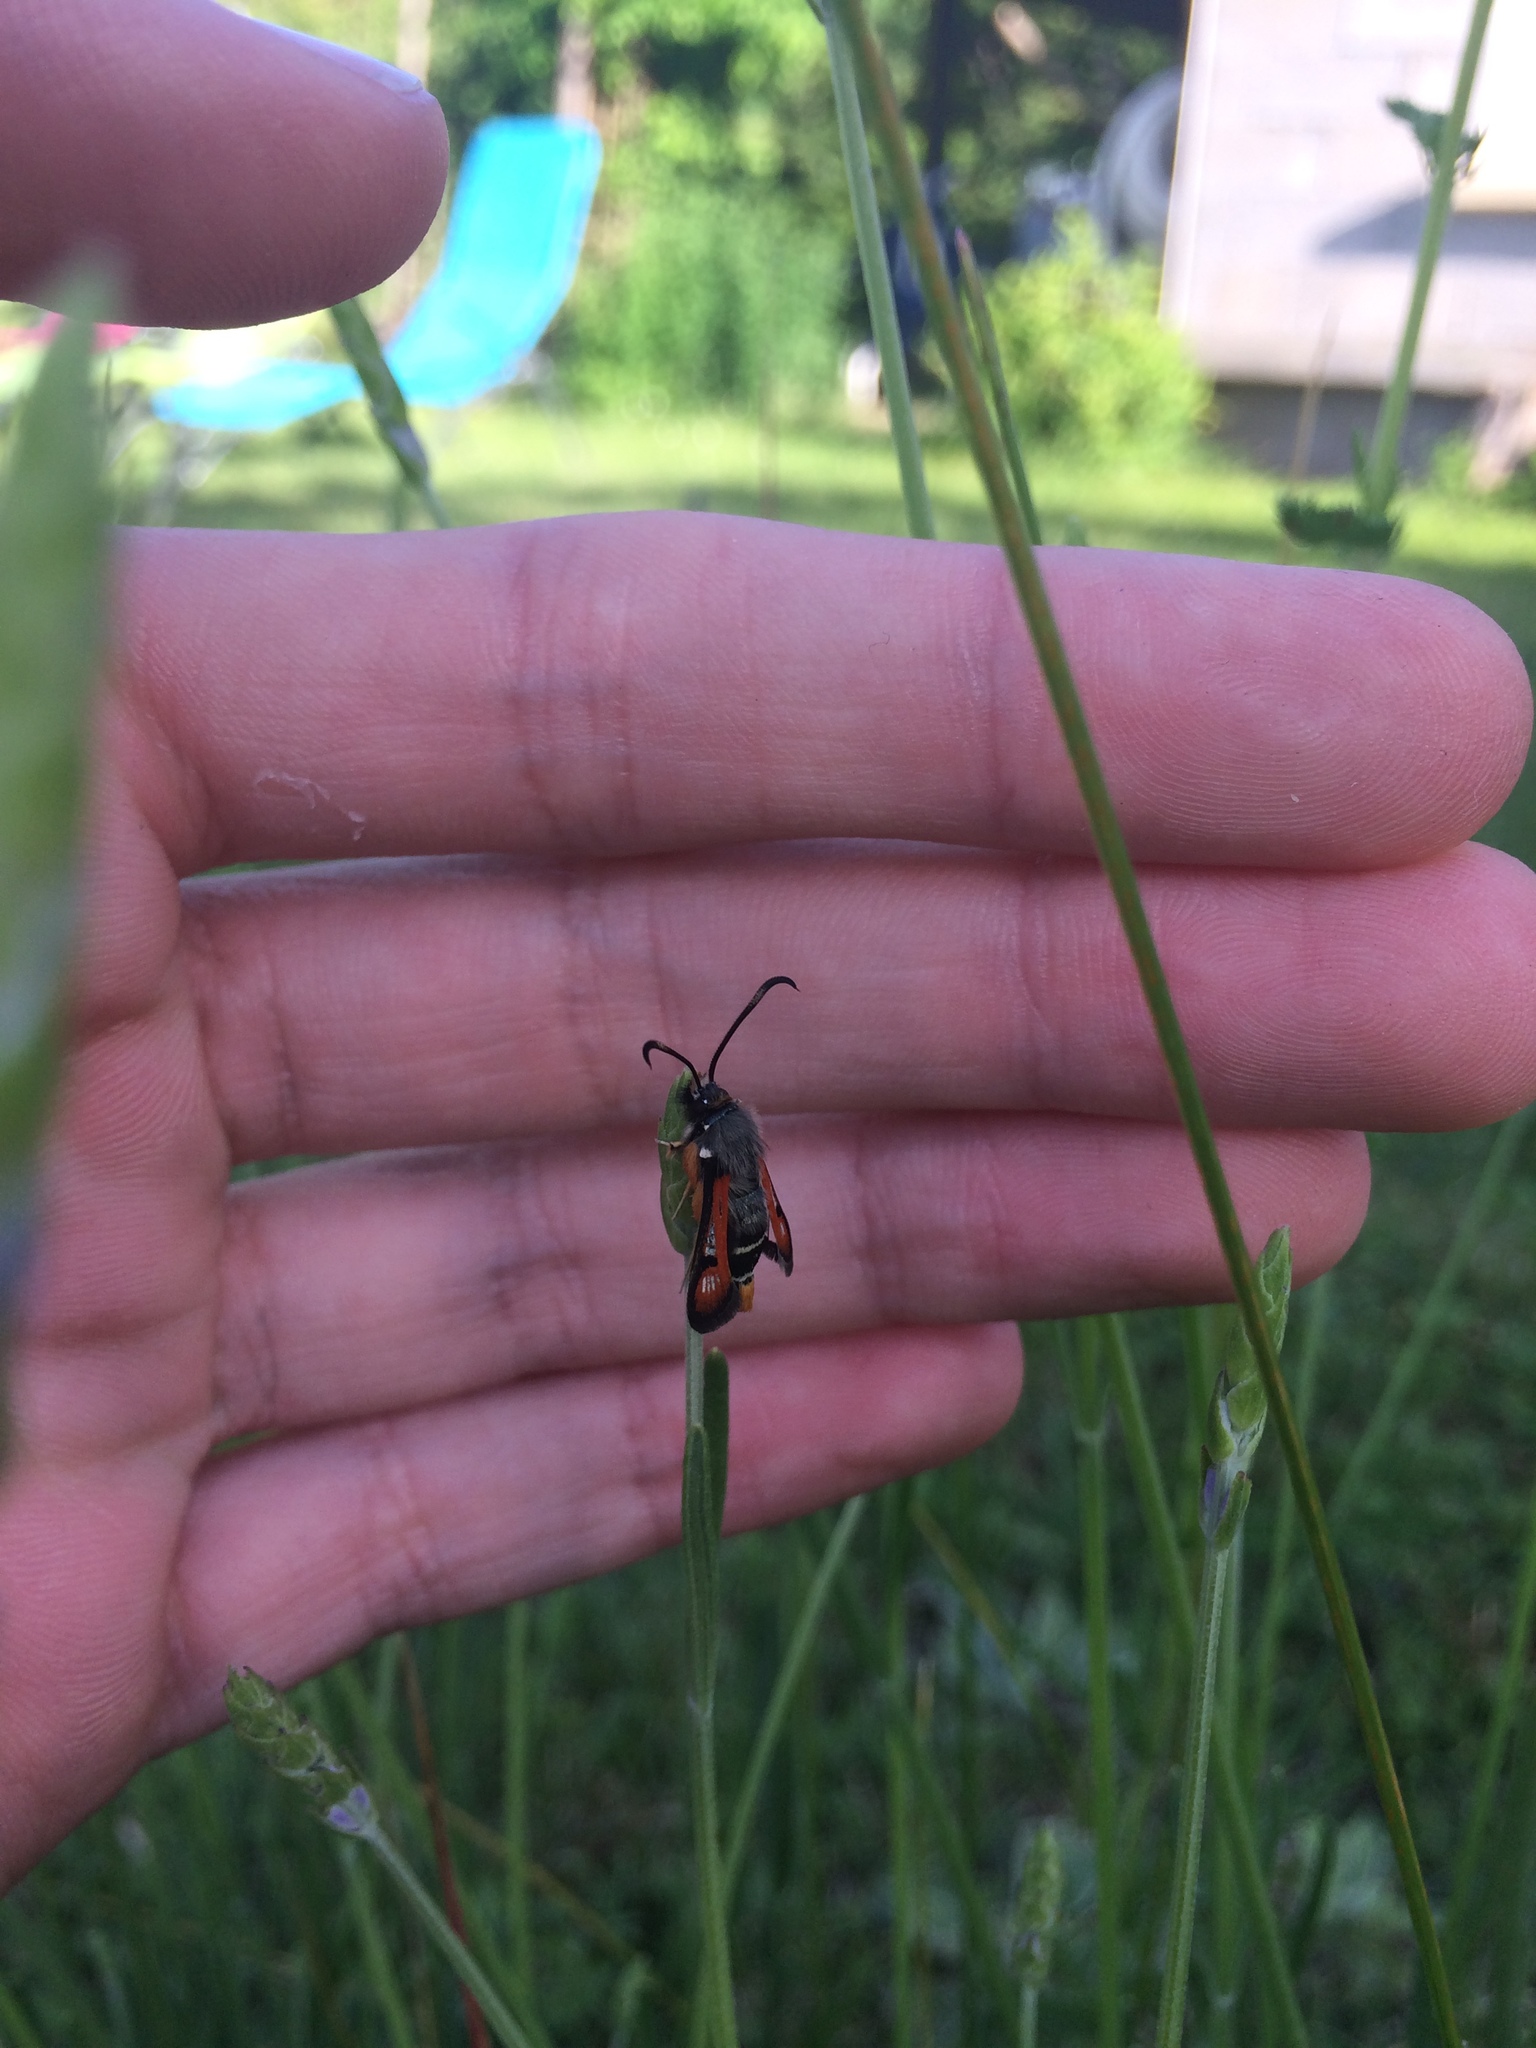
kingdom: Animalia
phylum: Arthropoda
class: Insecta
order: Lepidoptera
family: Sesiidae
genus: Pyropteron
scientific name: Pyropteron chrysidiforme
